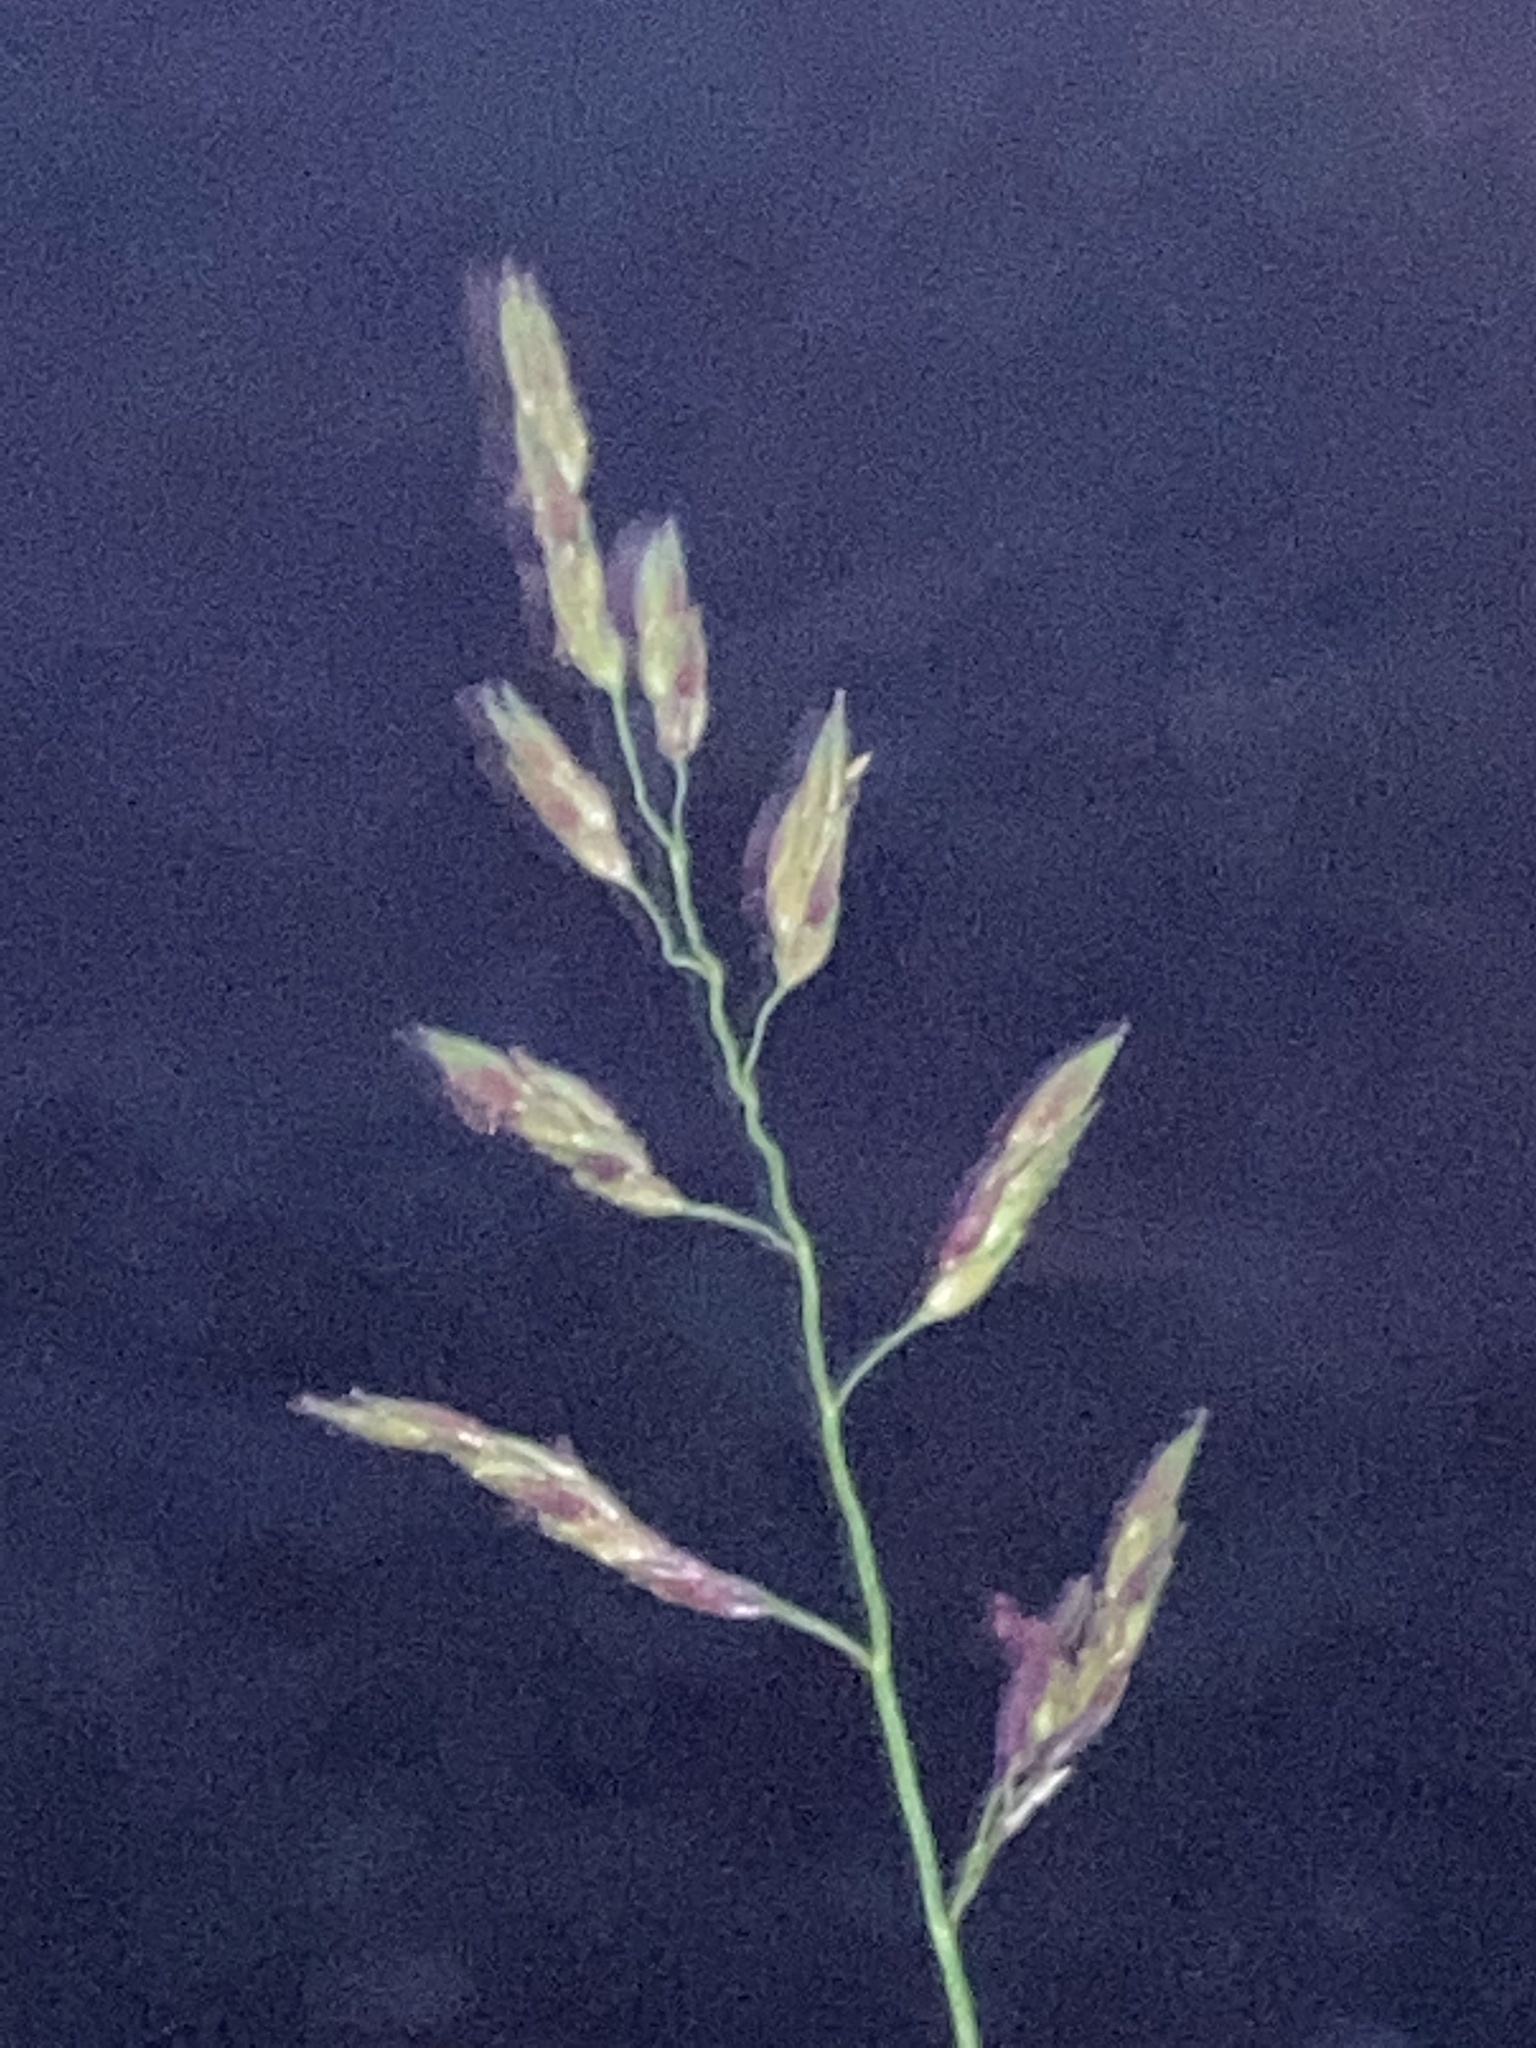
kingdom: Plantae
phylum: Tracheophyta
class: Liliopsida
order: Poales
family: Poaceae
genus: Sorghum
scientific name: Sorghum halepense
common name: Johnson-grass
